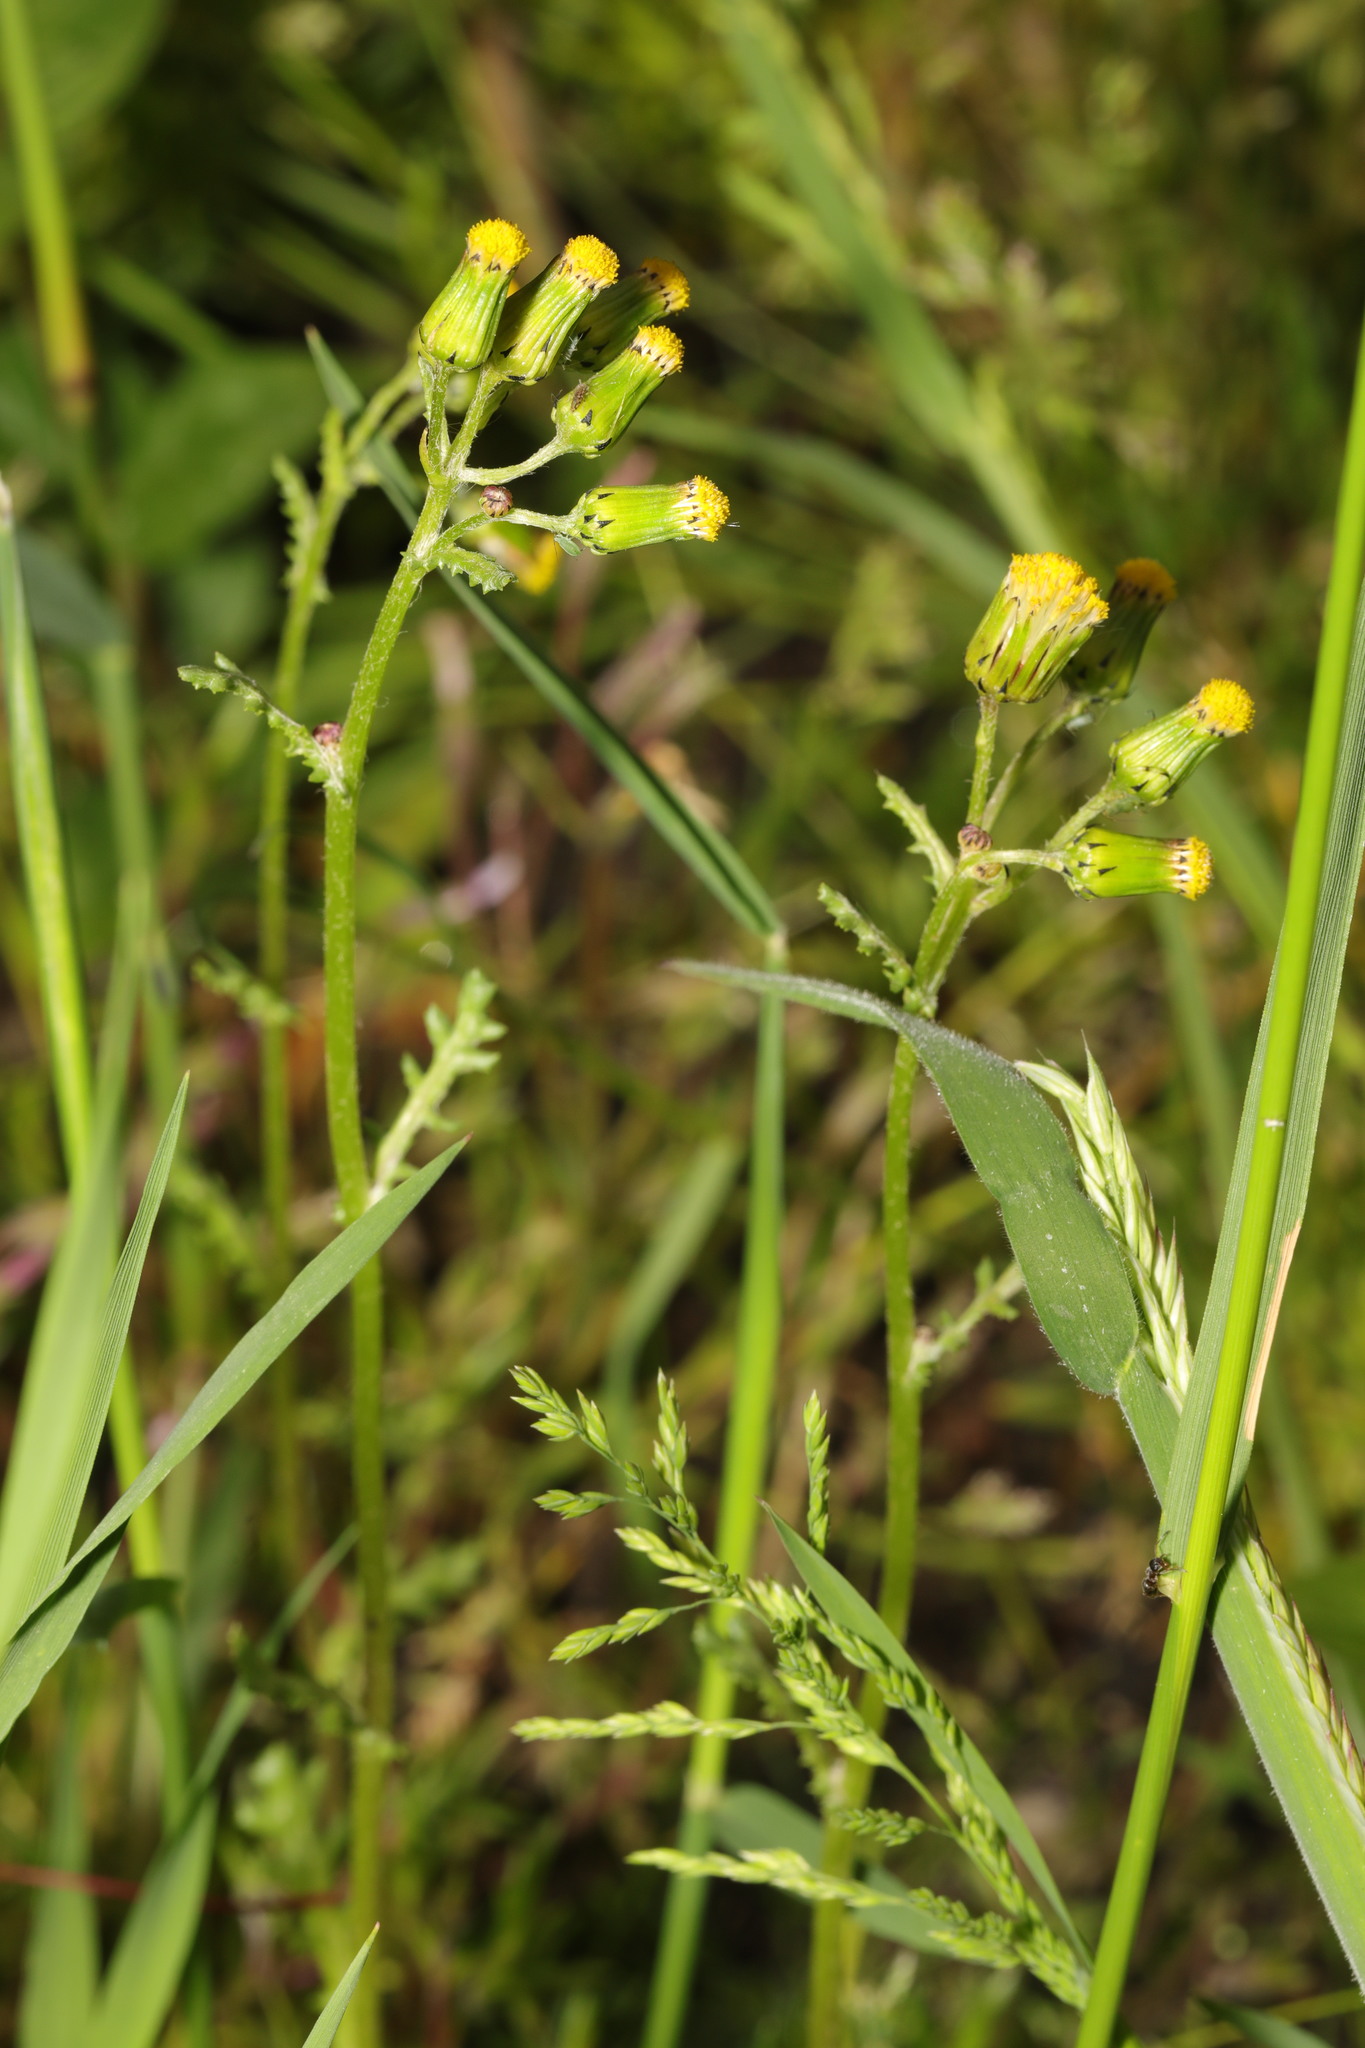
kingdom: Plantae
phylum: Tracheophyta
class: Magnoliopsida
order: Asterales
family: Asteraceae
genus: Senecio
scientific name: Senecio vulgaris
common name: Old-man-in-the-spring
